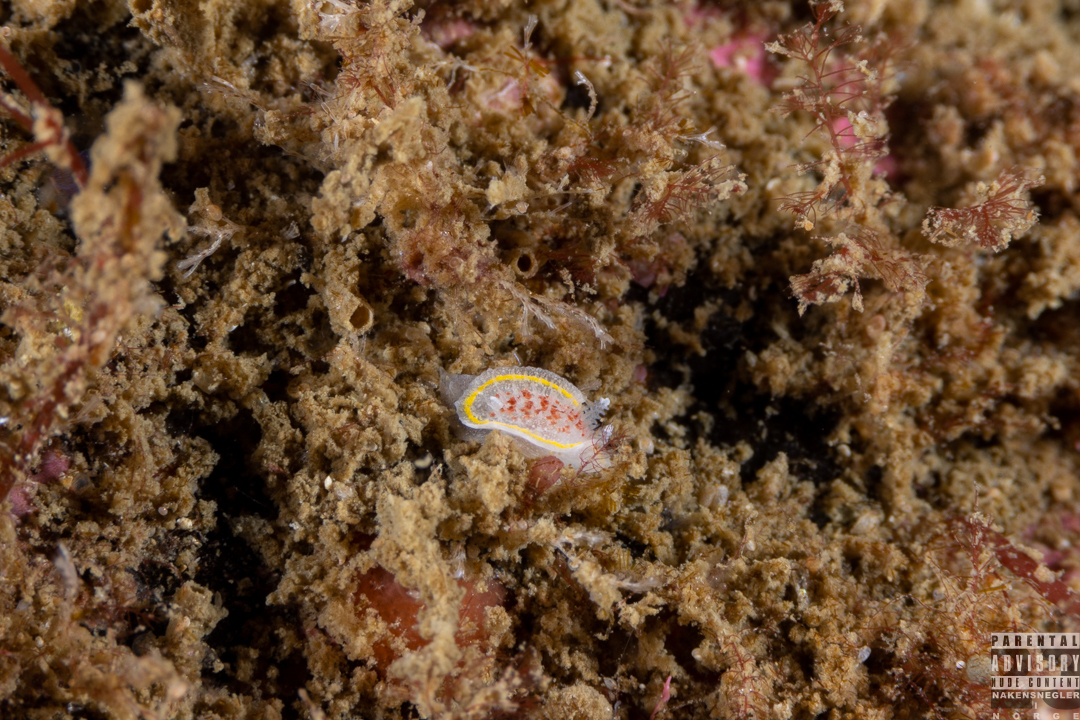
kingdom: Animalia
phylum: Mollusca
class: Gastropoda
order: Nudibranchia
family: Calycidorididae
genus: Diaphorodoris
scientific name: Diaphorodoris luteocincta
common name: Fried egg nudibranch
